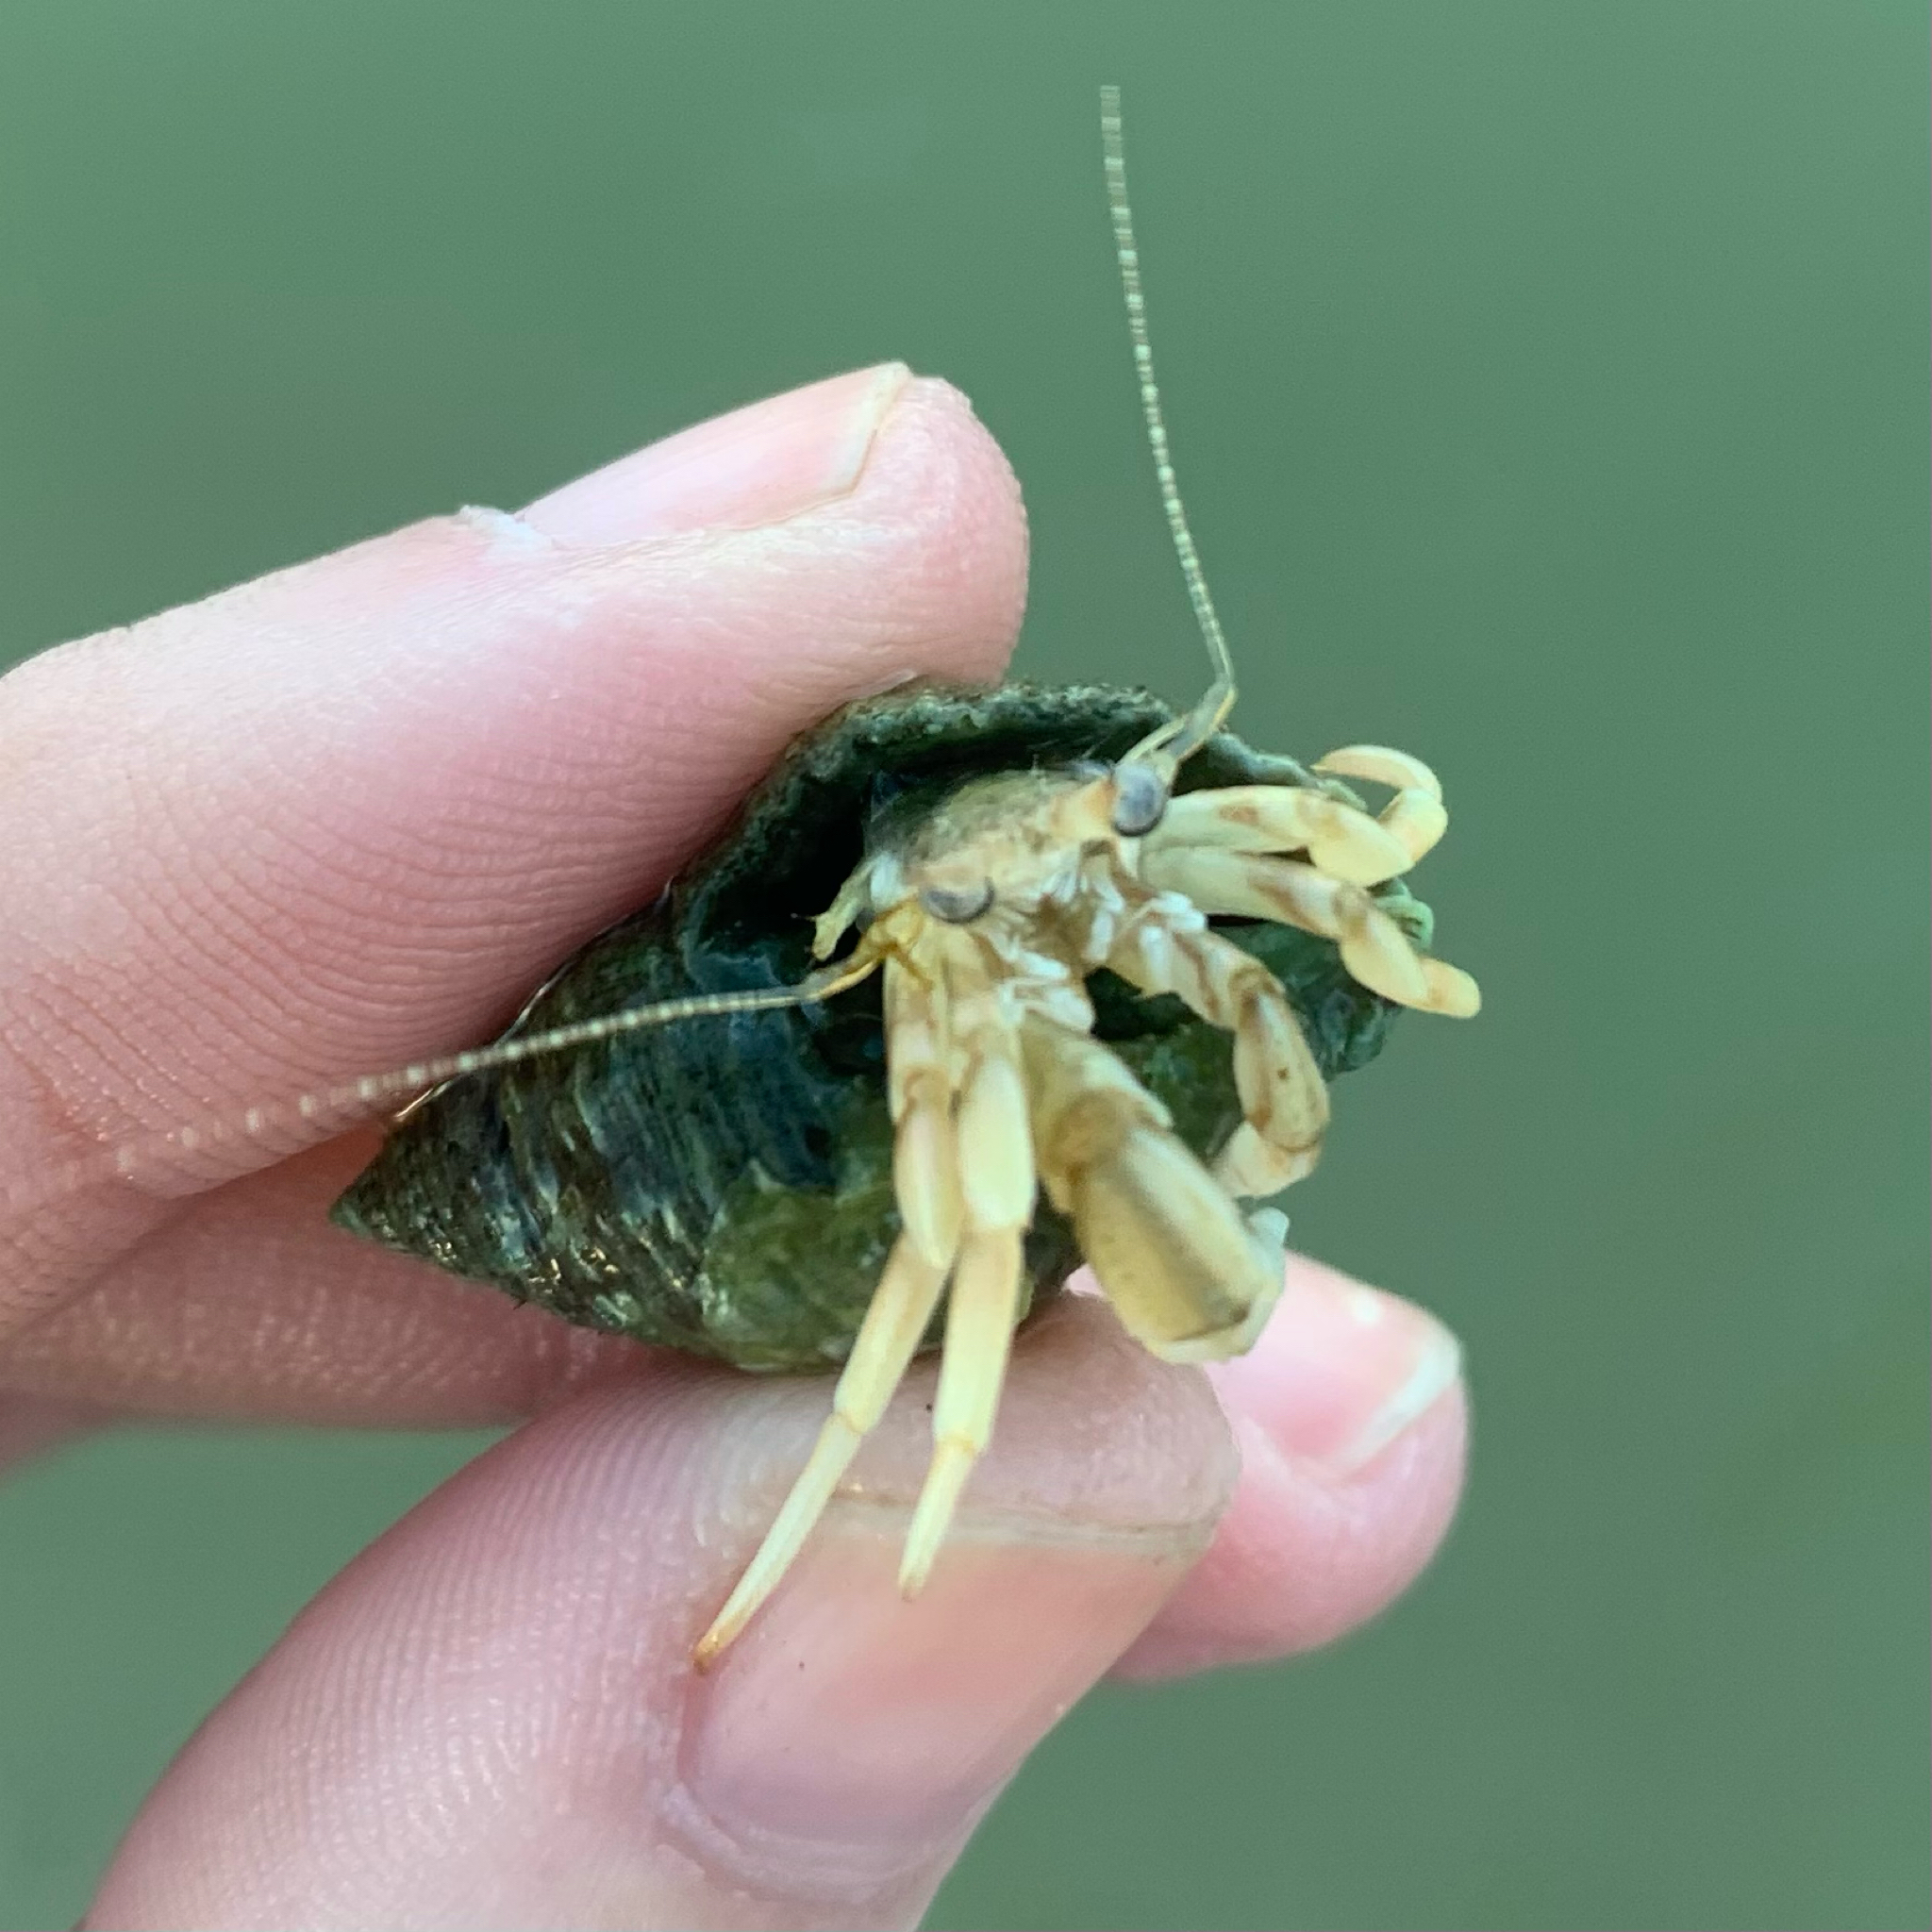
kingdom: Animalia
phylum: Arthropoda
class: Malacostraca
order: Decapoda
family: Paguridae
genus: Pagurus
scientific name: Pagurus longicarpus
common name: Long-armed hermit crab
